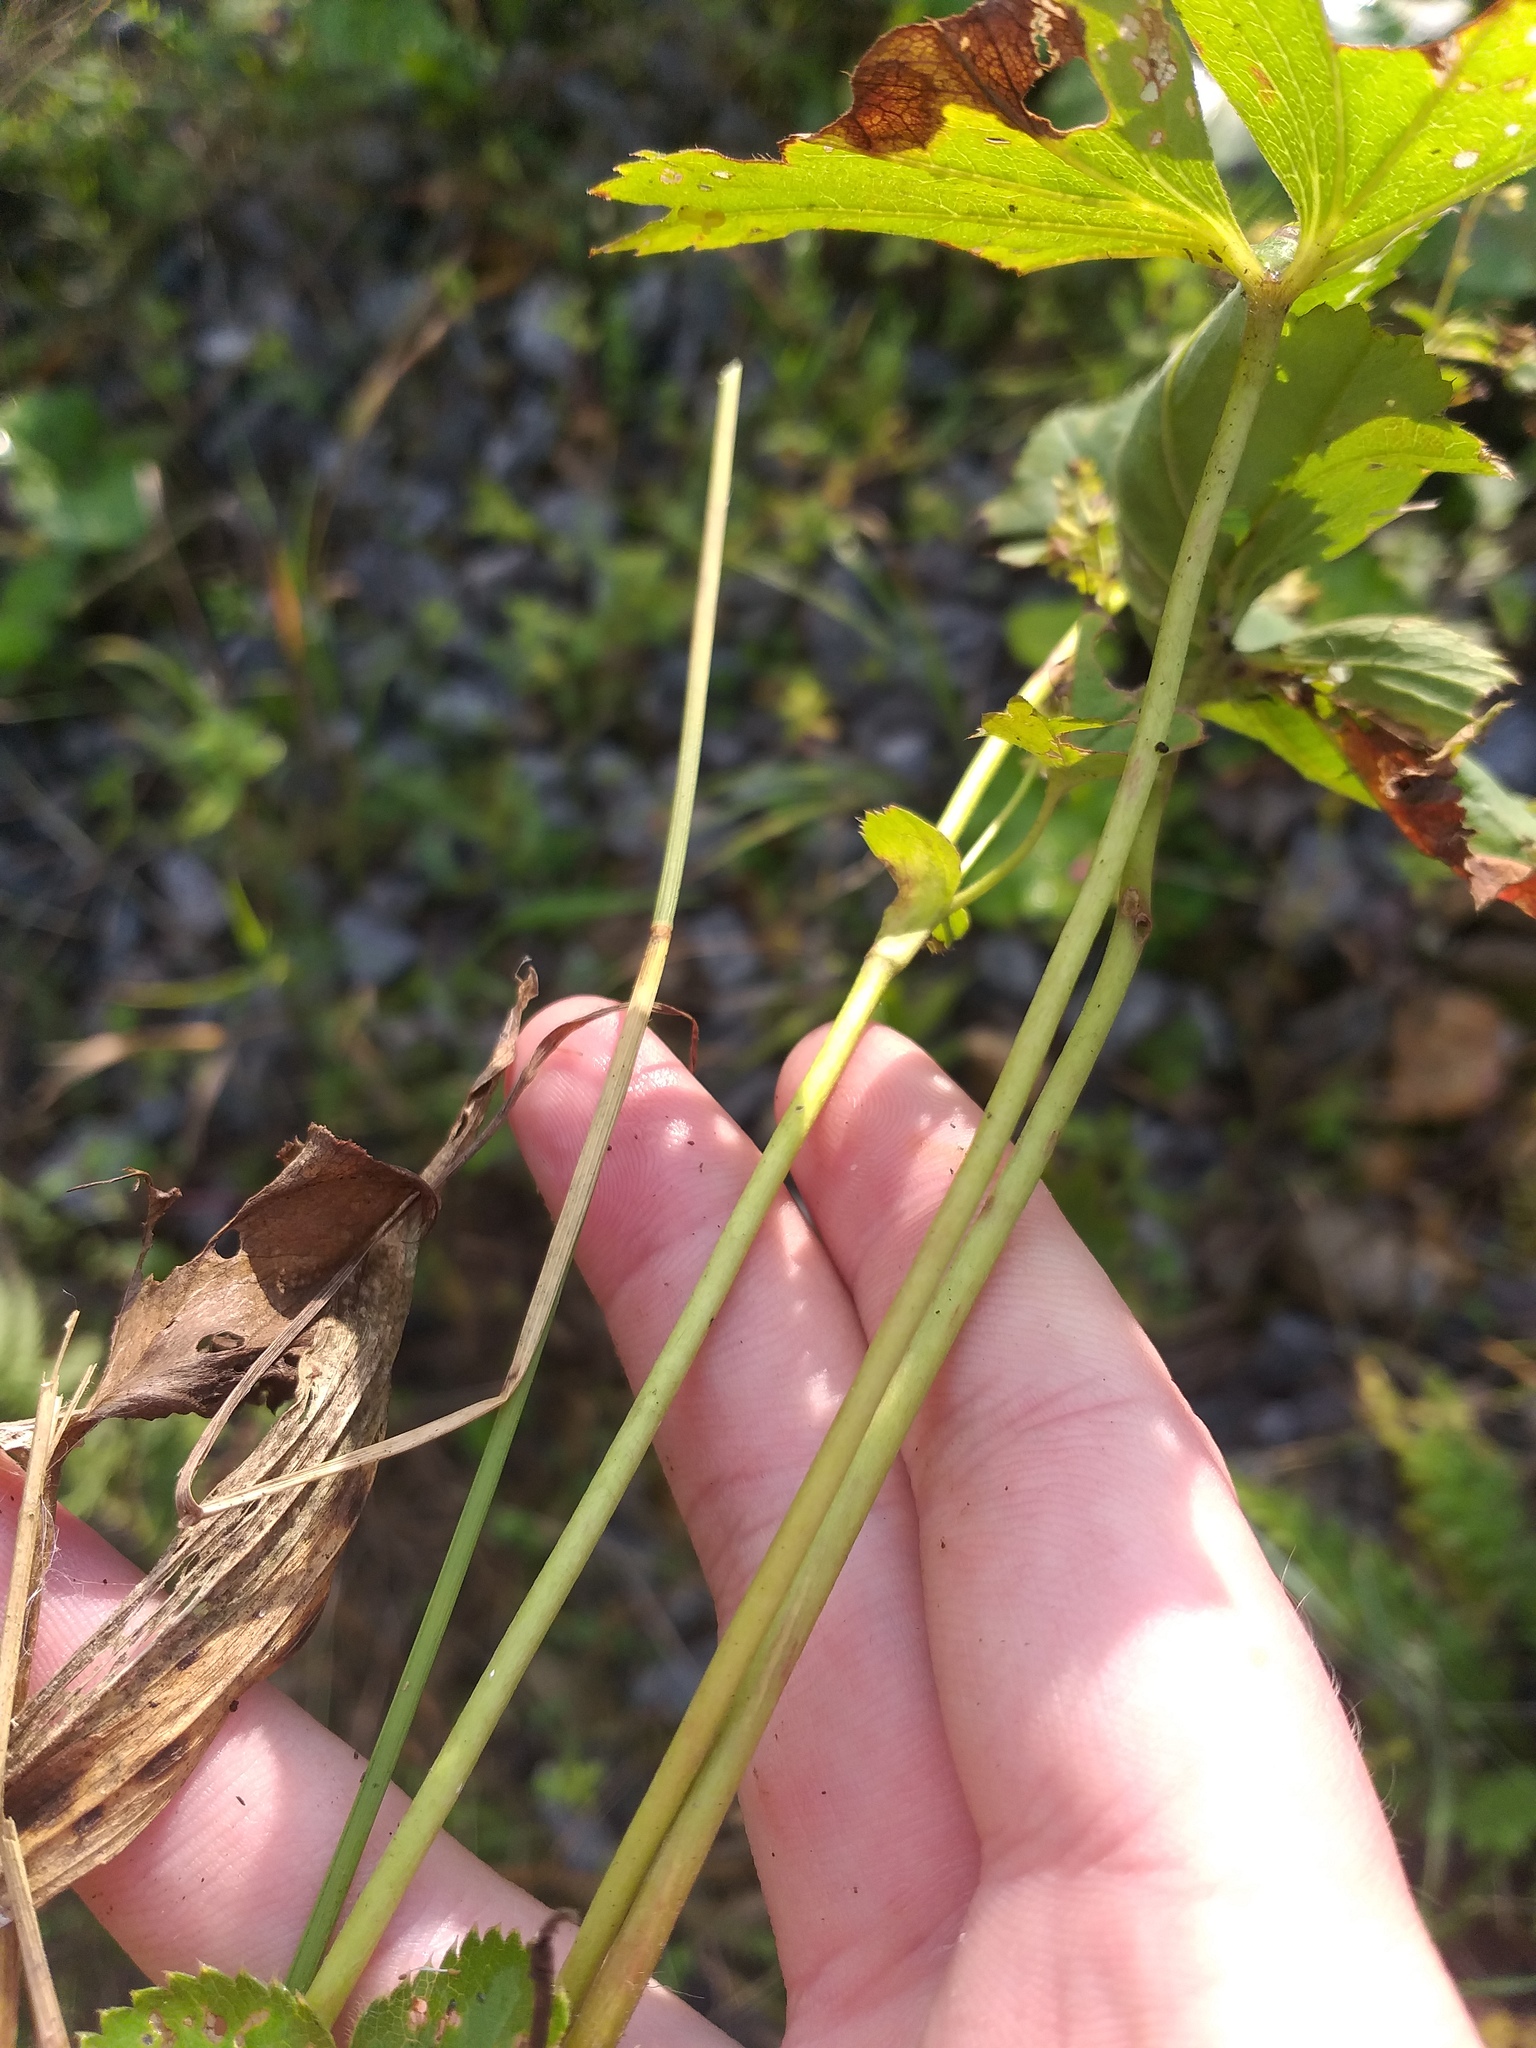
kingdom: Plantae
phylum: Tracheophyta
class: Magnoliopsida
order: Rosales
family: Rosaceae
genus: Alchemilla
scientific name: Alchemilla baltica
